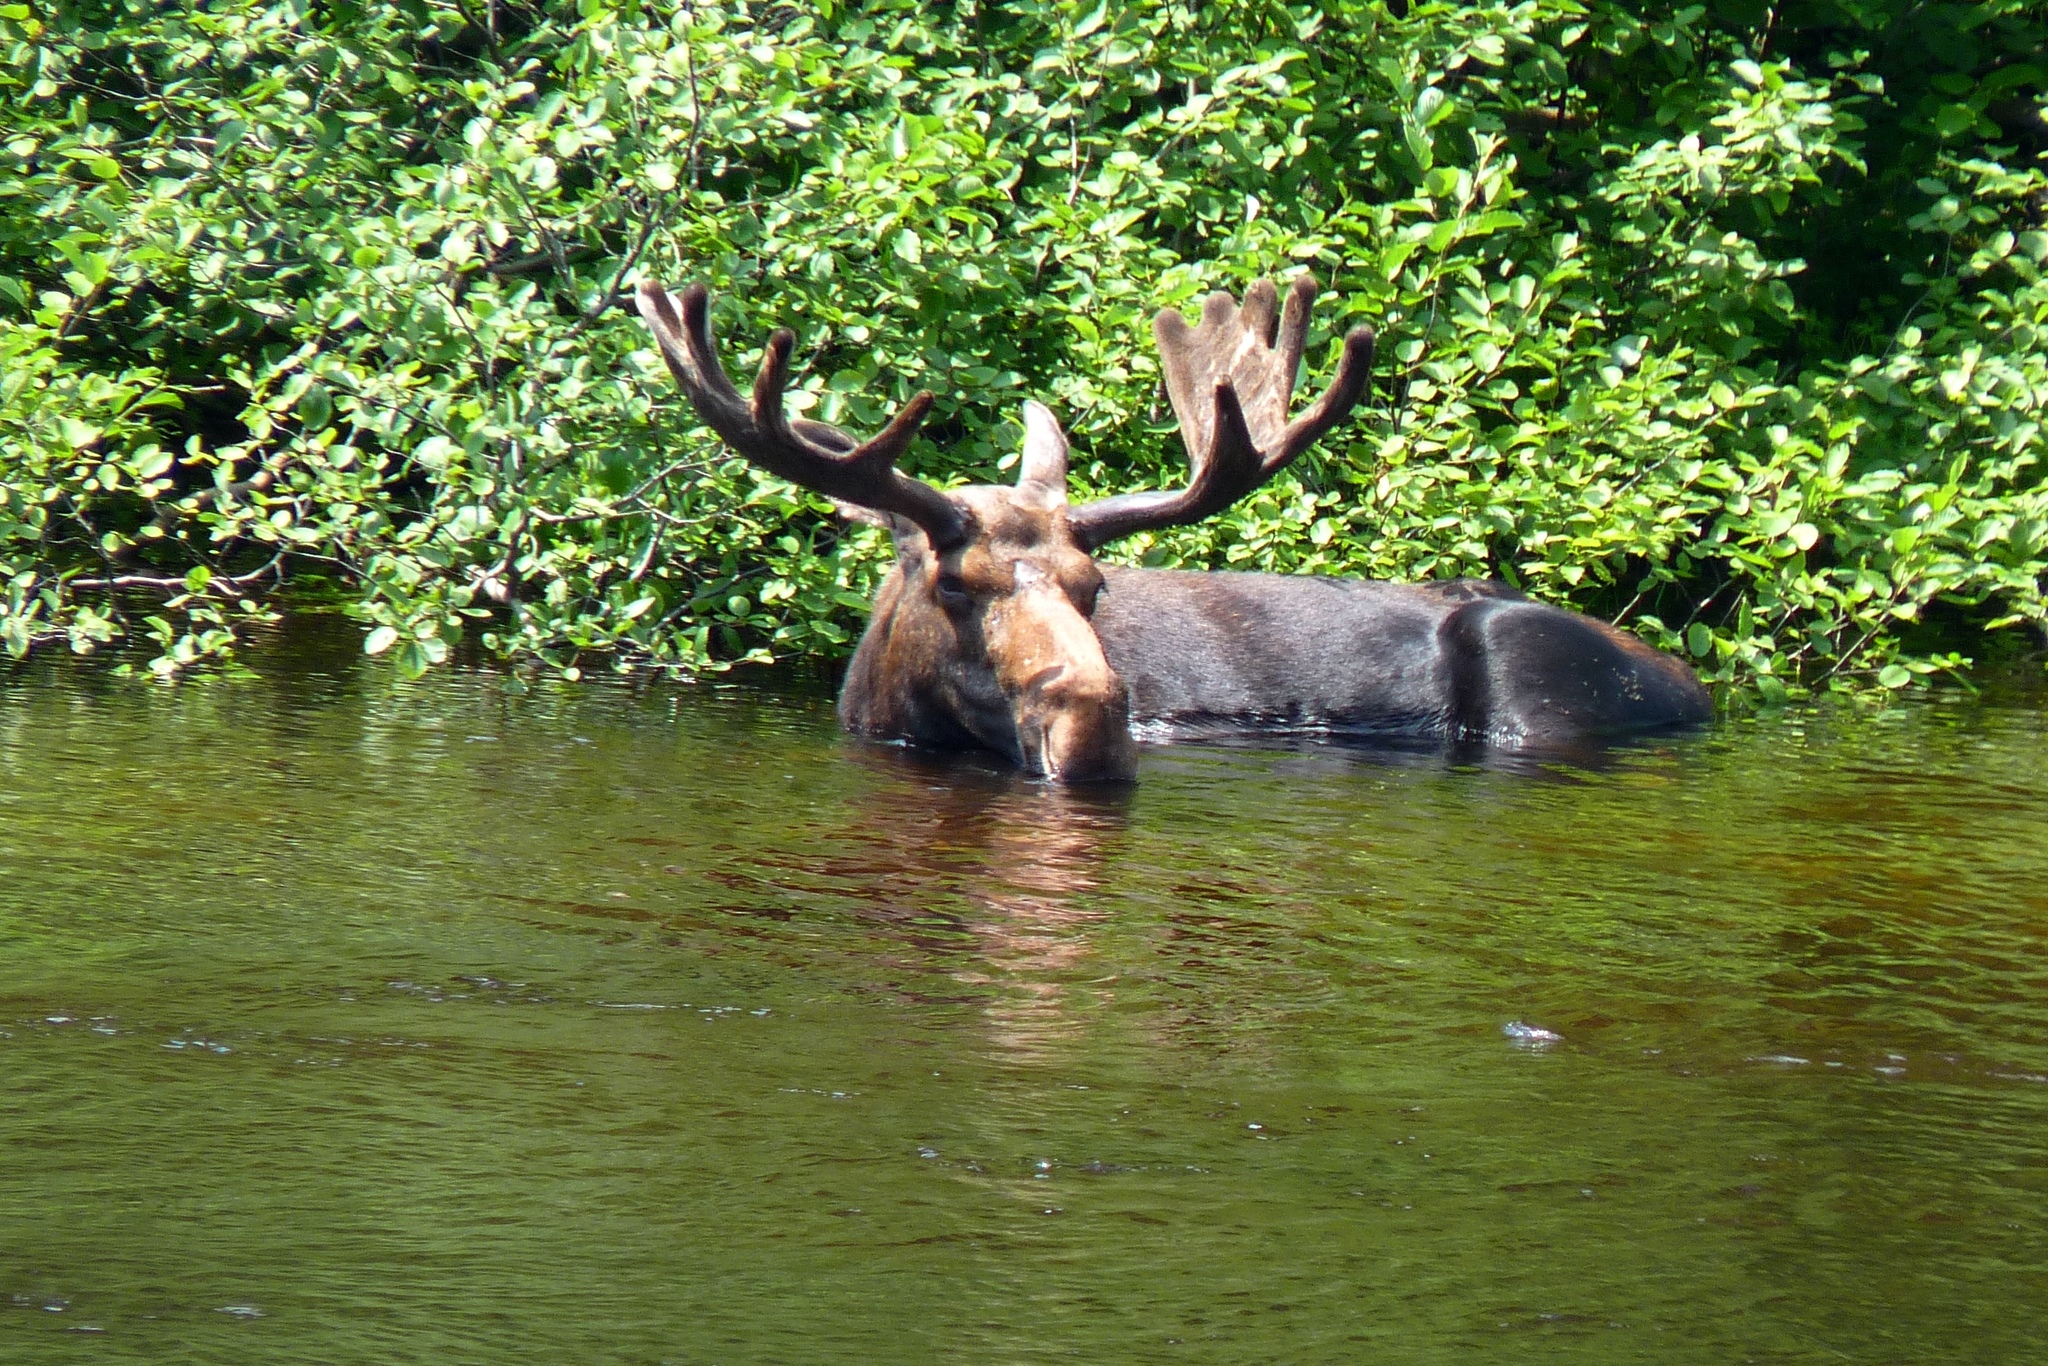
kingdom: Animalia
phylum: Chordata
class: Mammalia
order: Artiodactyla
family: Cervidae
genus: Alces
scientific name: Alces alces
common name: Moose
